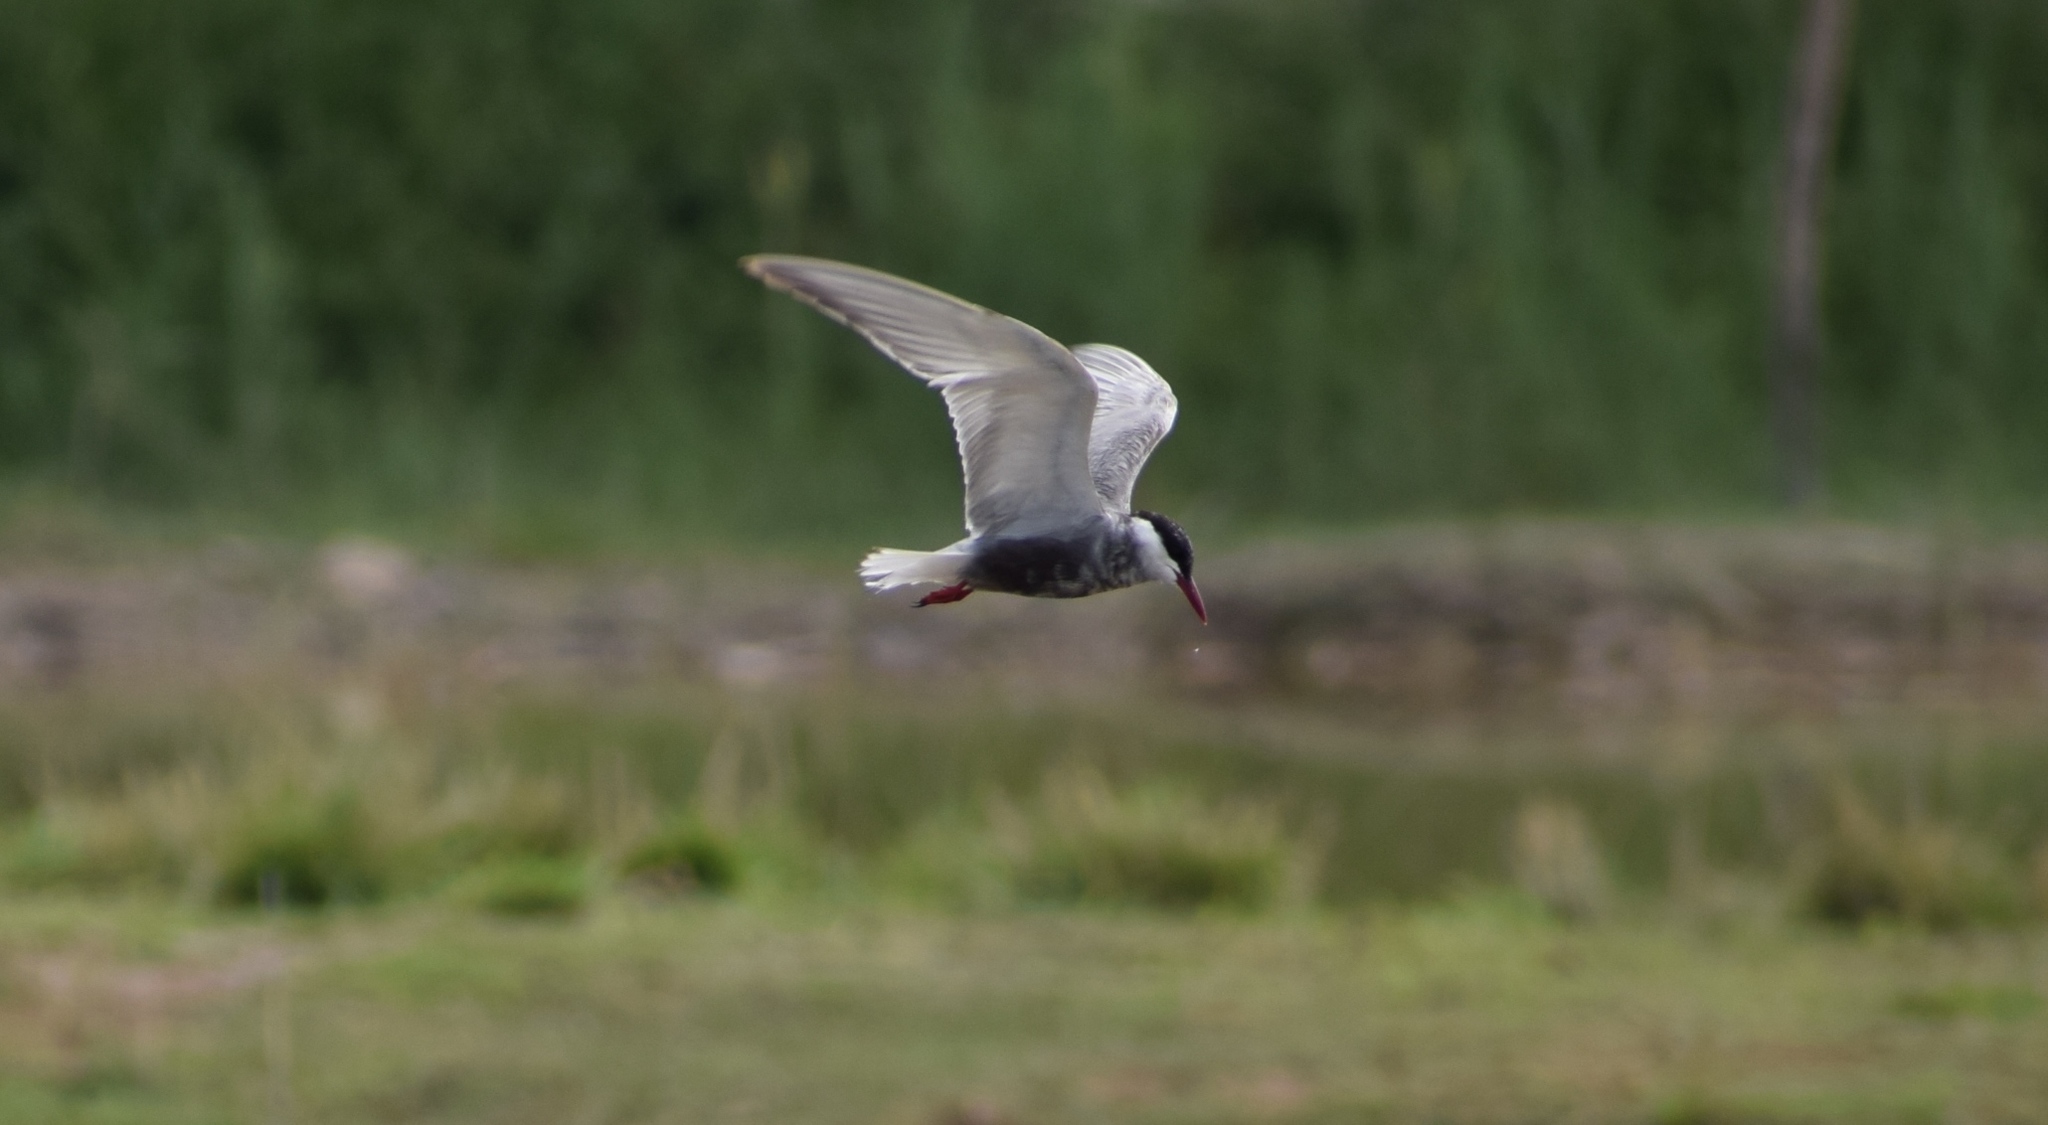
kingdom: Animalia
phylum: Chordata
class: Aves
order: Charadriiformes
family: Laridae
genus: Chlidonias
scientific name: Chlidonias hybrida
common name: Whiskered tern
